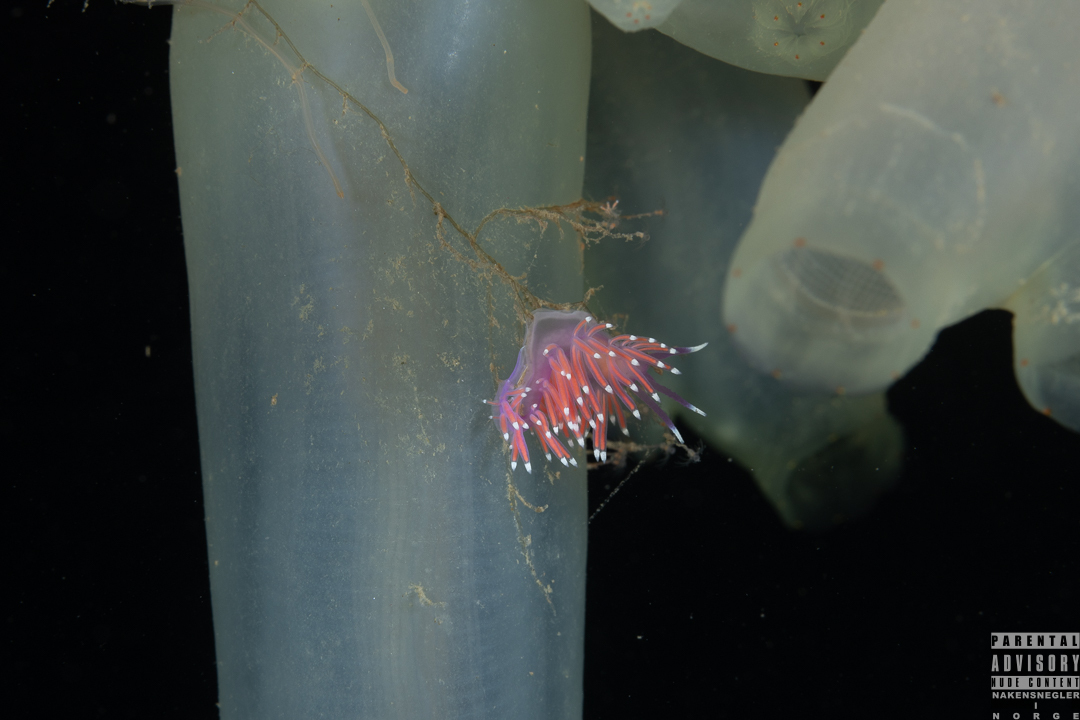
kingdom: Animalia
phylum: Mollusca
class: Gastropoda
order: Nudibranchia
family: Flabellinidae
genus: Edmundsella
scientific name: Edmundsella pedata
